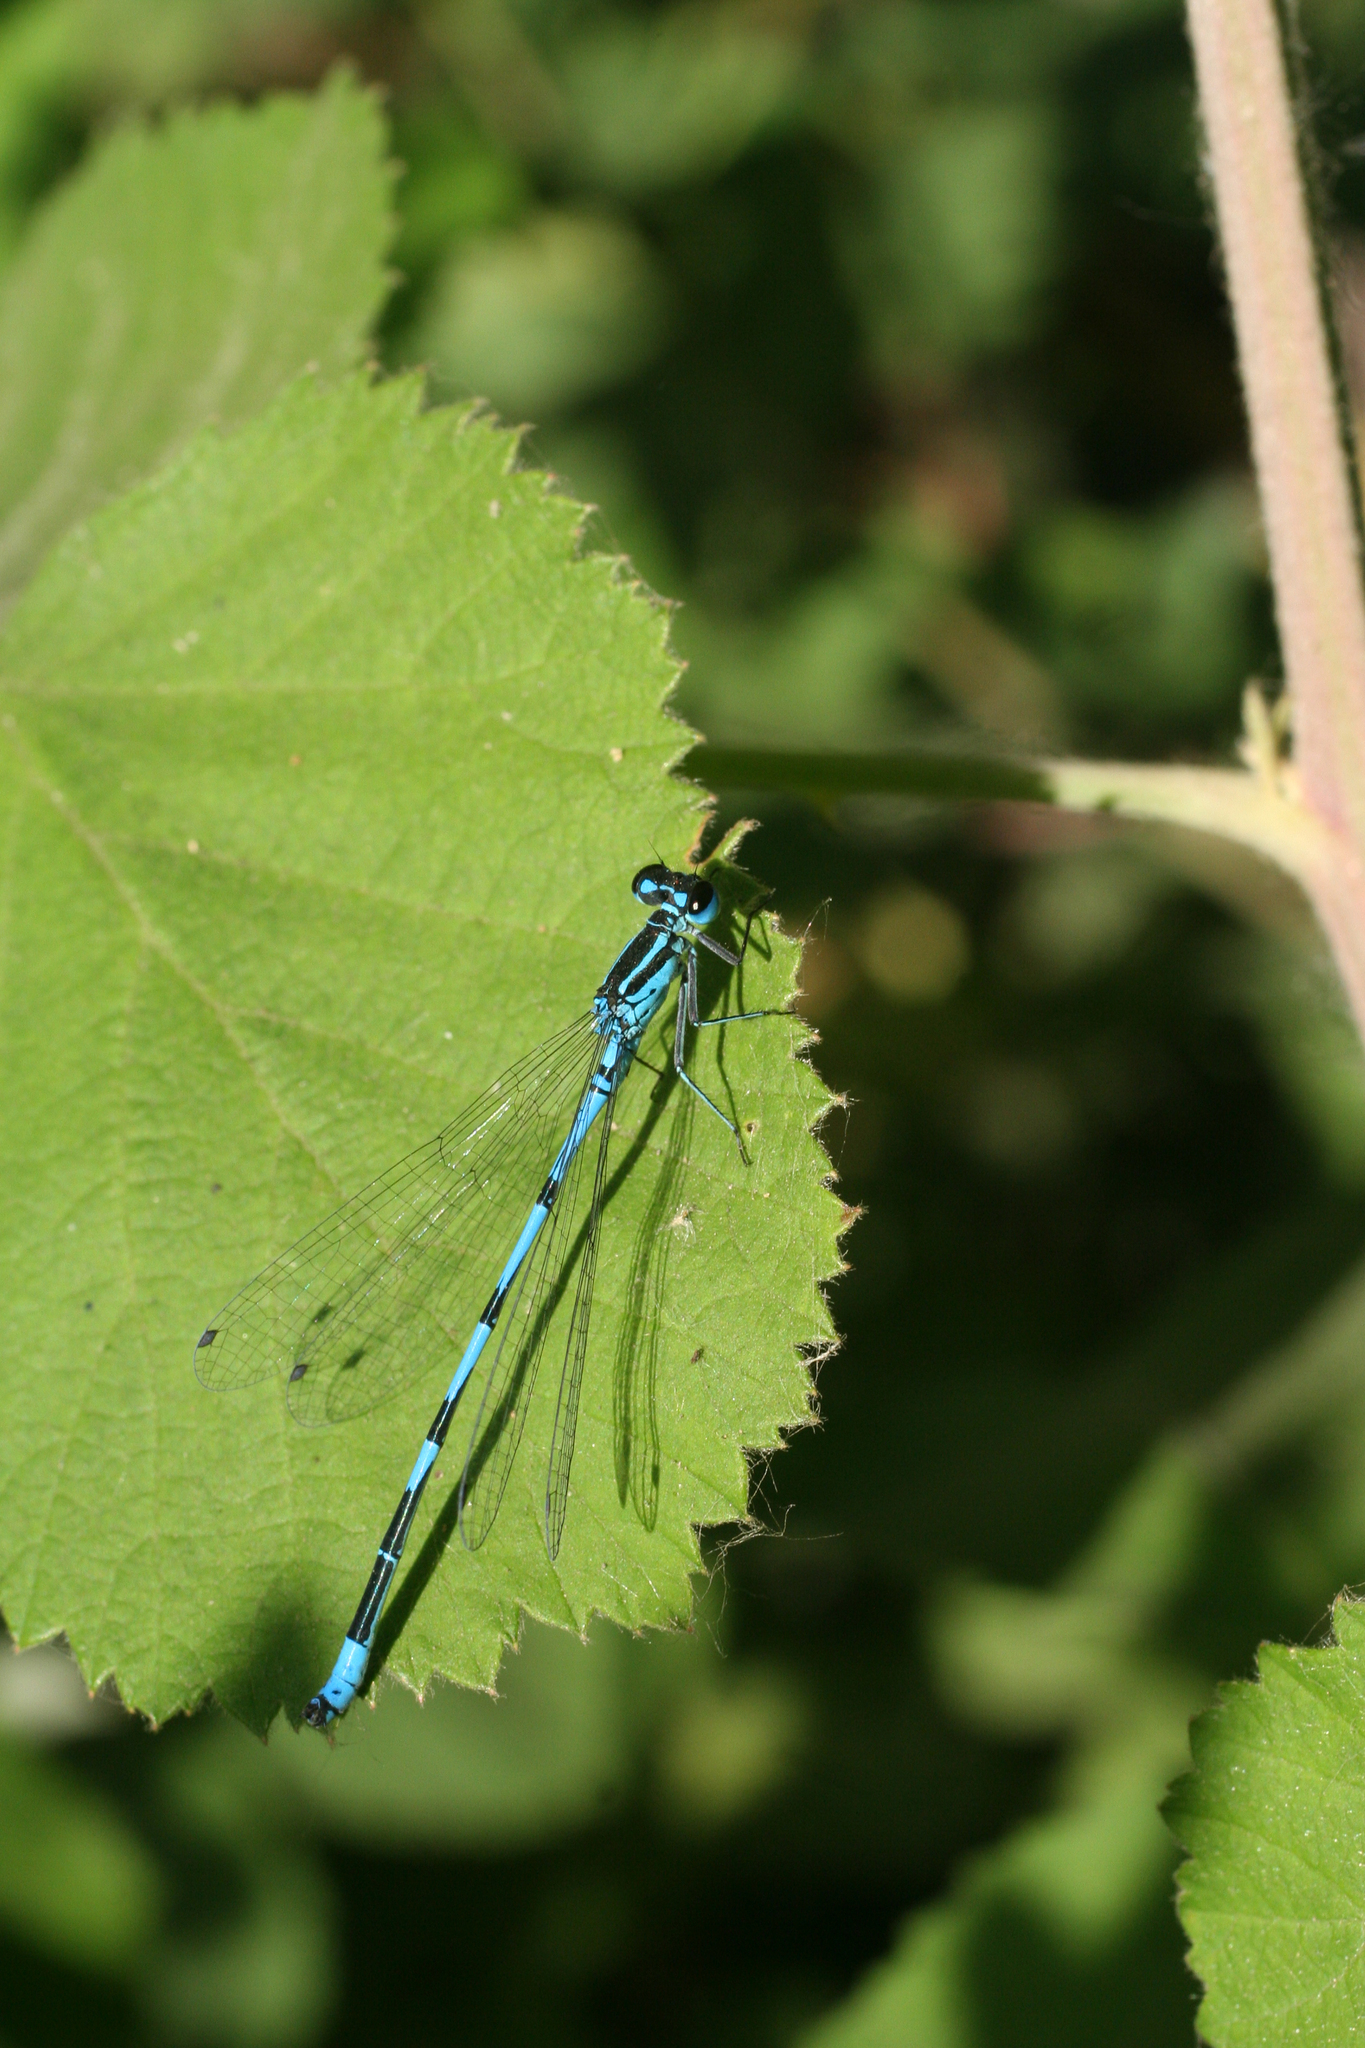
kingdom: Animalia
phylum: Arthropoda
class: Insecta
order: Odonata
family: Coenagrionidae
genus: Coenagrion
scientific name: Coenagrion australocaspicum
